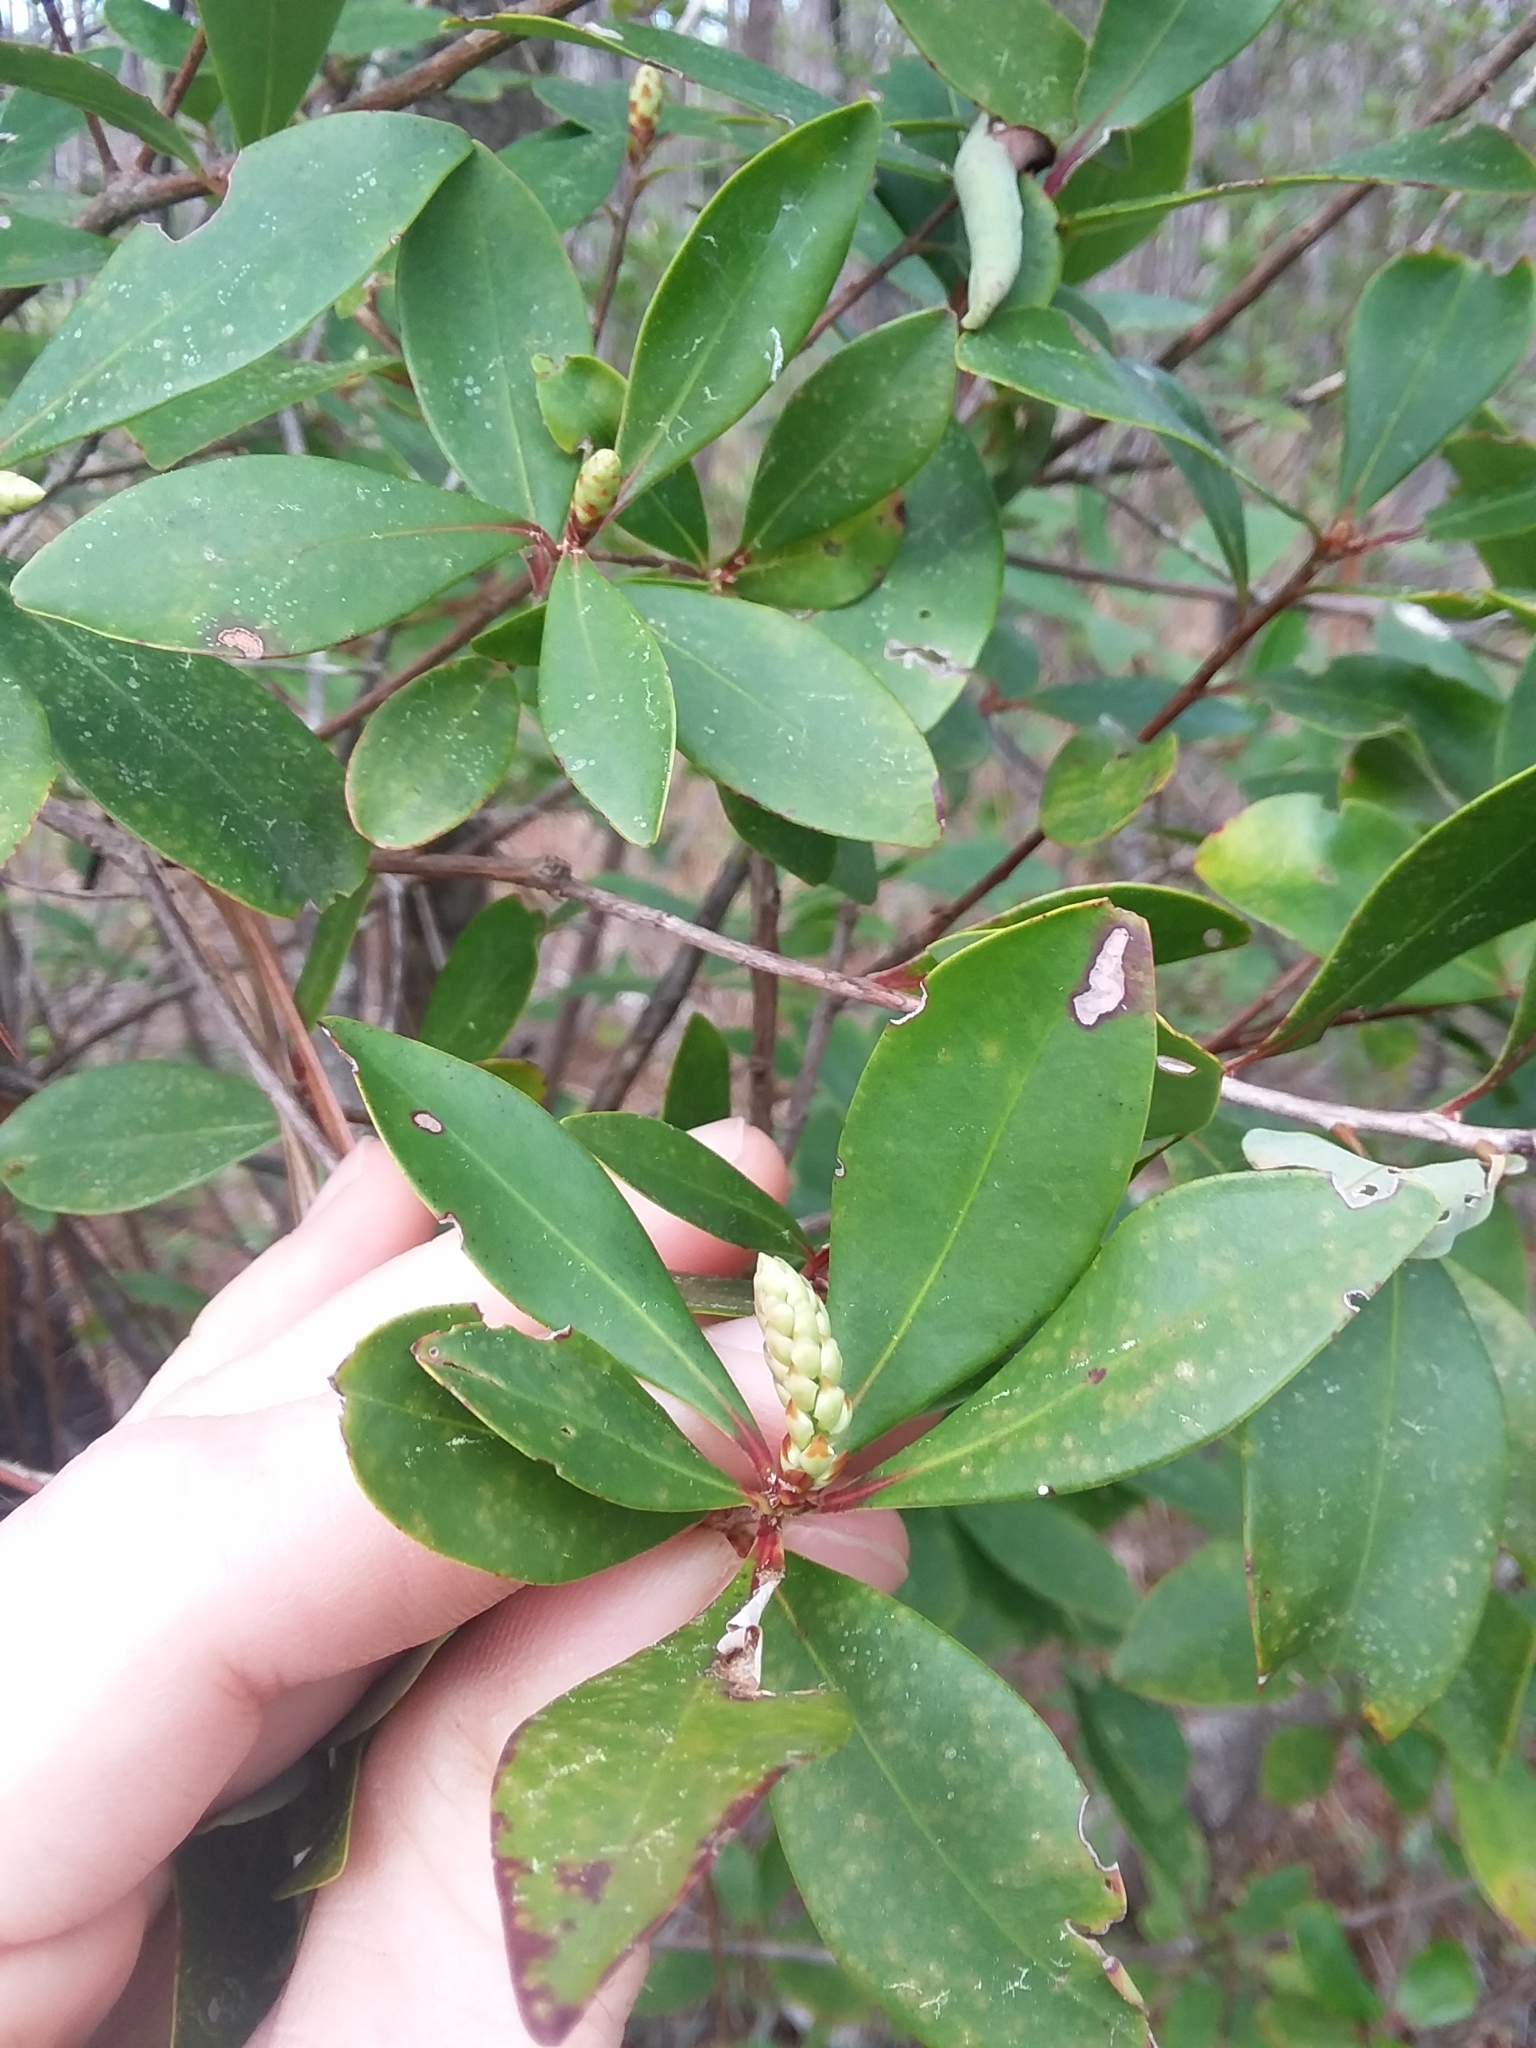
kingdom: Plantae
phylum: Tracheophyta
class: Magnoliopsida
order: Ericales
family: Cyrillaceae
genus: Cliftonia
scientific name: Cliftonia monophylla
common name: Titi
